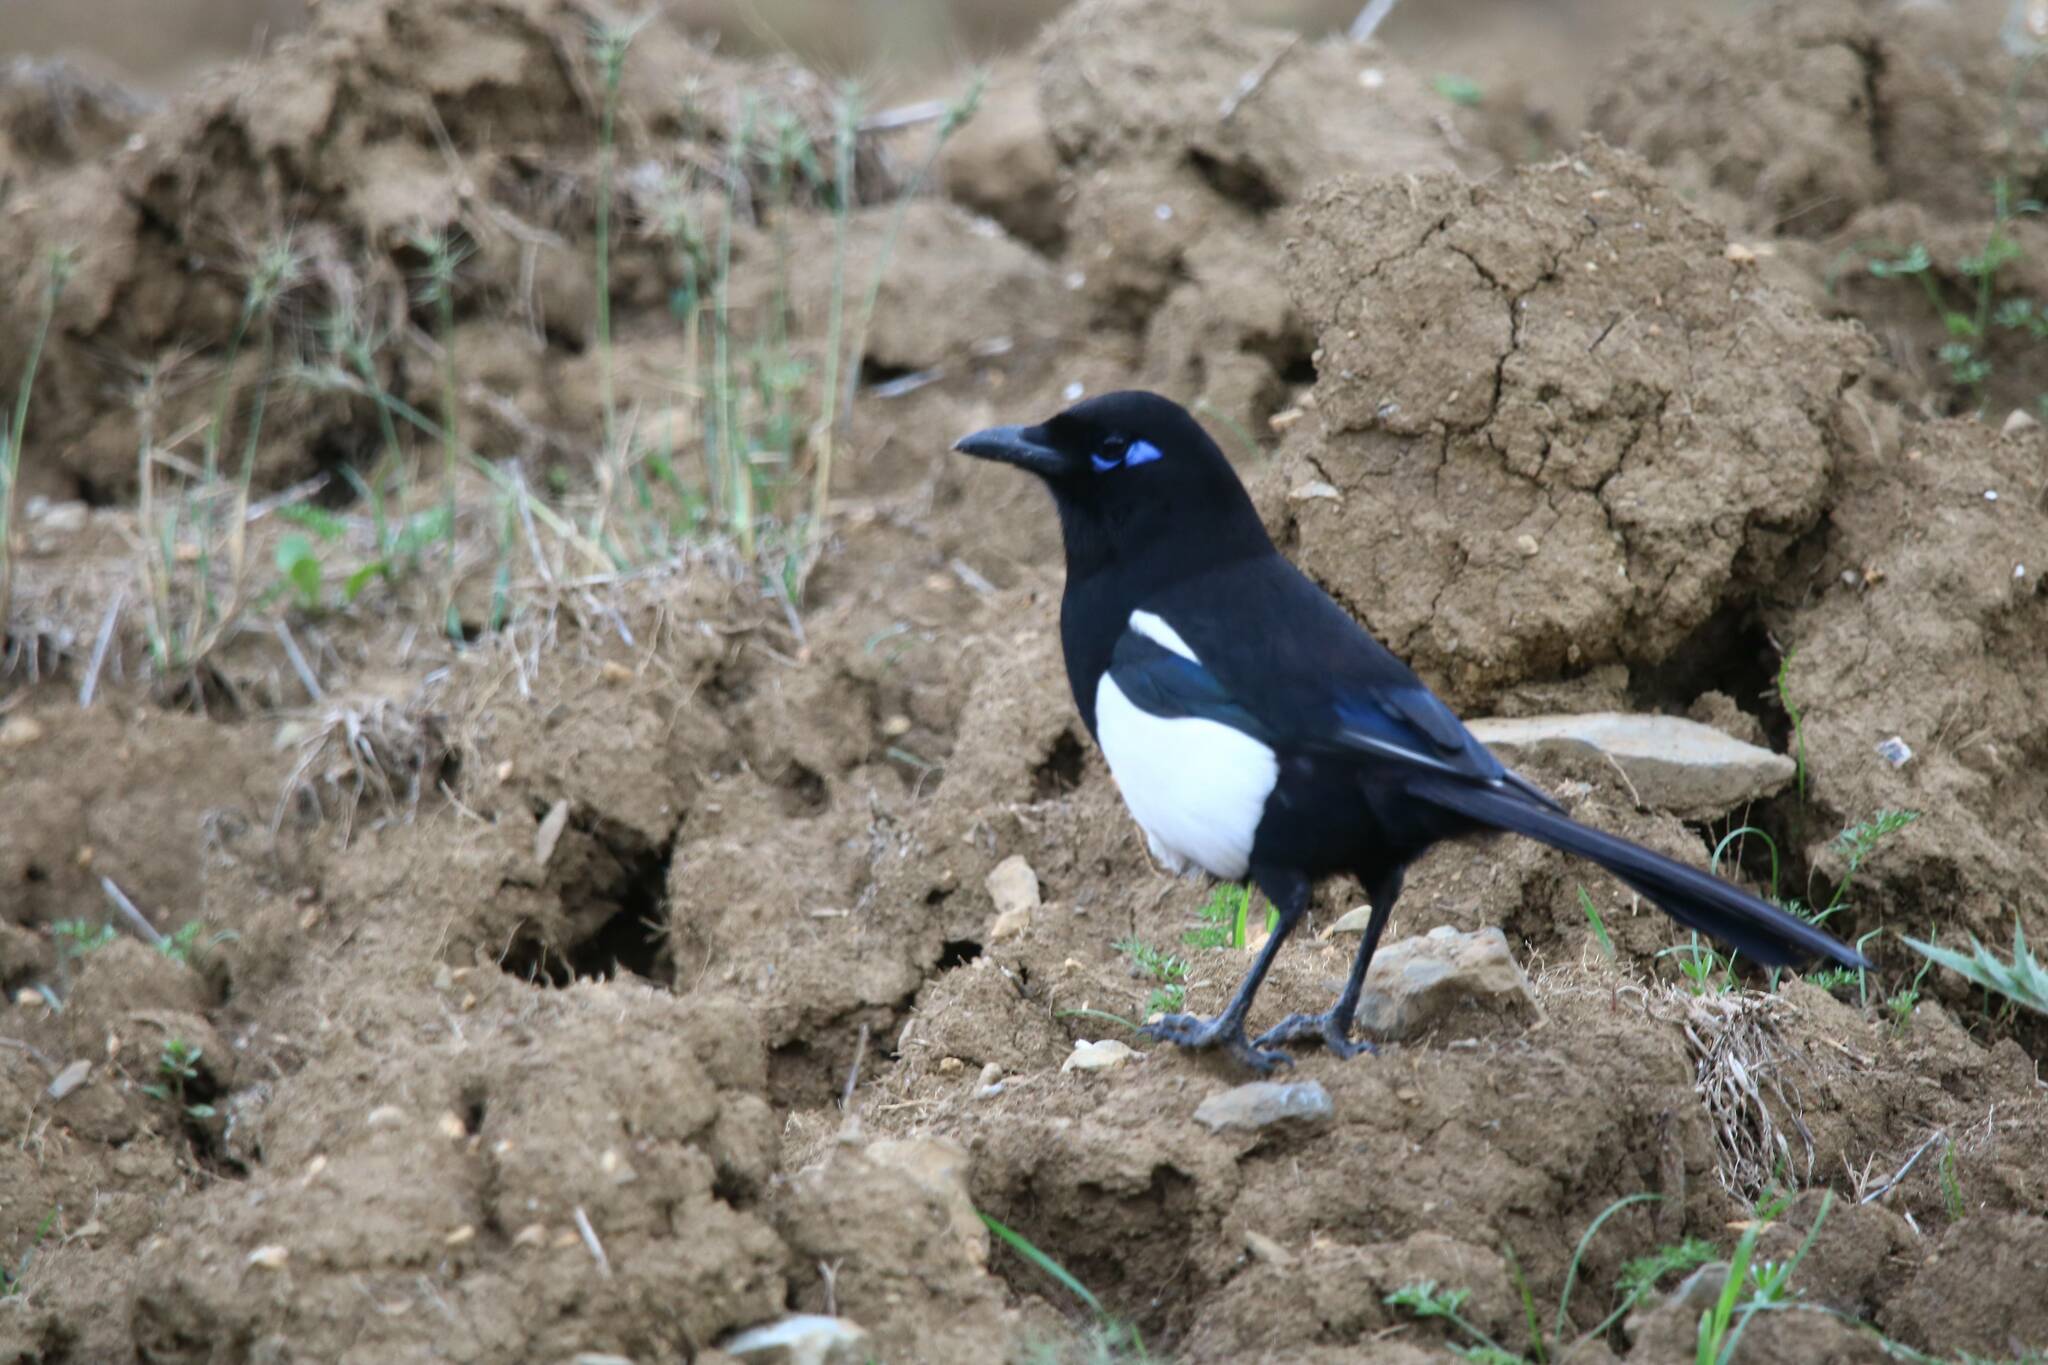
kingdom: Animalia
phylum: Chordata
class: Aves
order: Passeriformes
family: Corvidae
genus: Pica
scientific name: Pica mauritanica
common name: Maghreb magpie
